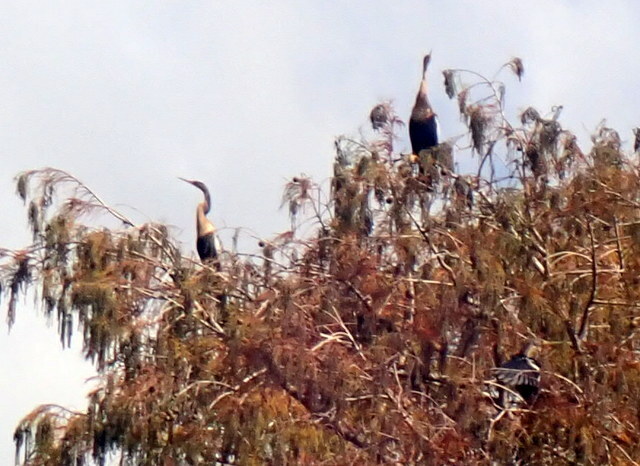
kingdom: Animalia
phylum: Chordata
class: Aves
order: Suliformes
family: Anhingidae
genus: Anhinga
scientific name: Anhinga anhinga
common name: Anhinga
